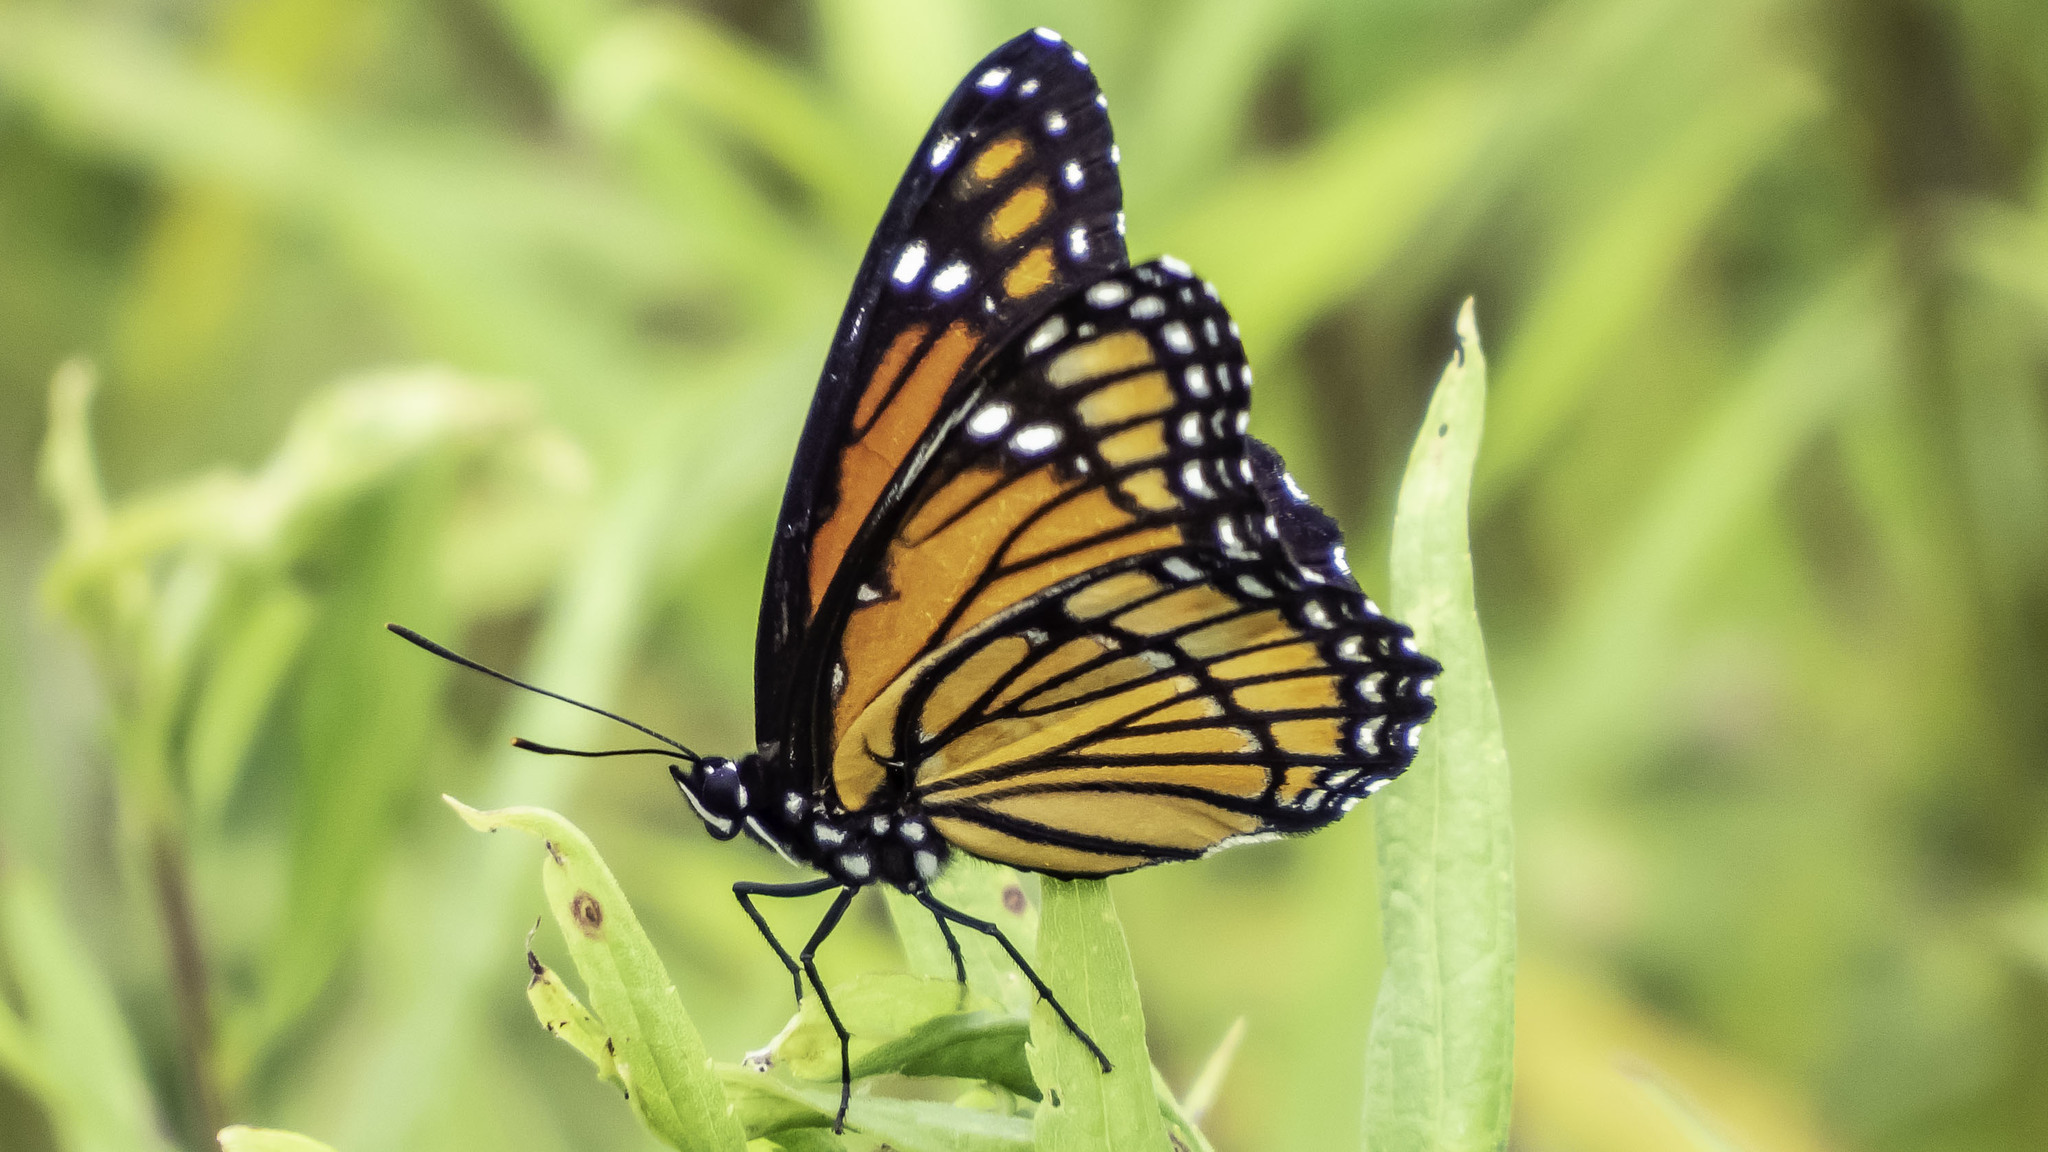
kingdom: Animalia
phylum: Arthropoda
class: Insecta
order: Lepidoptera
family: Nymphalidae
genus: Limenitis
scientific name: Limenitis archippus
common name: Viceroy
